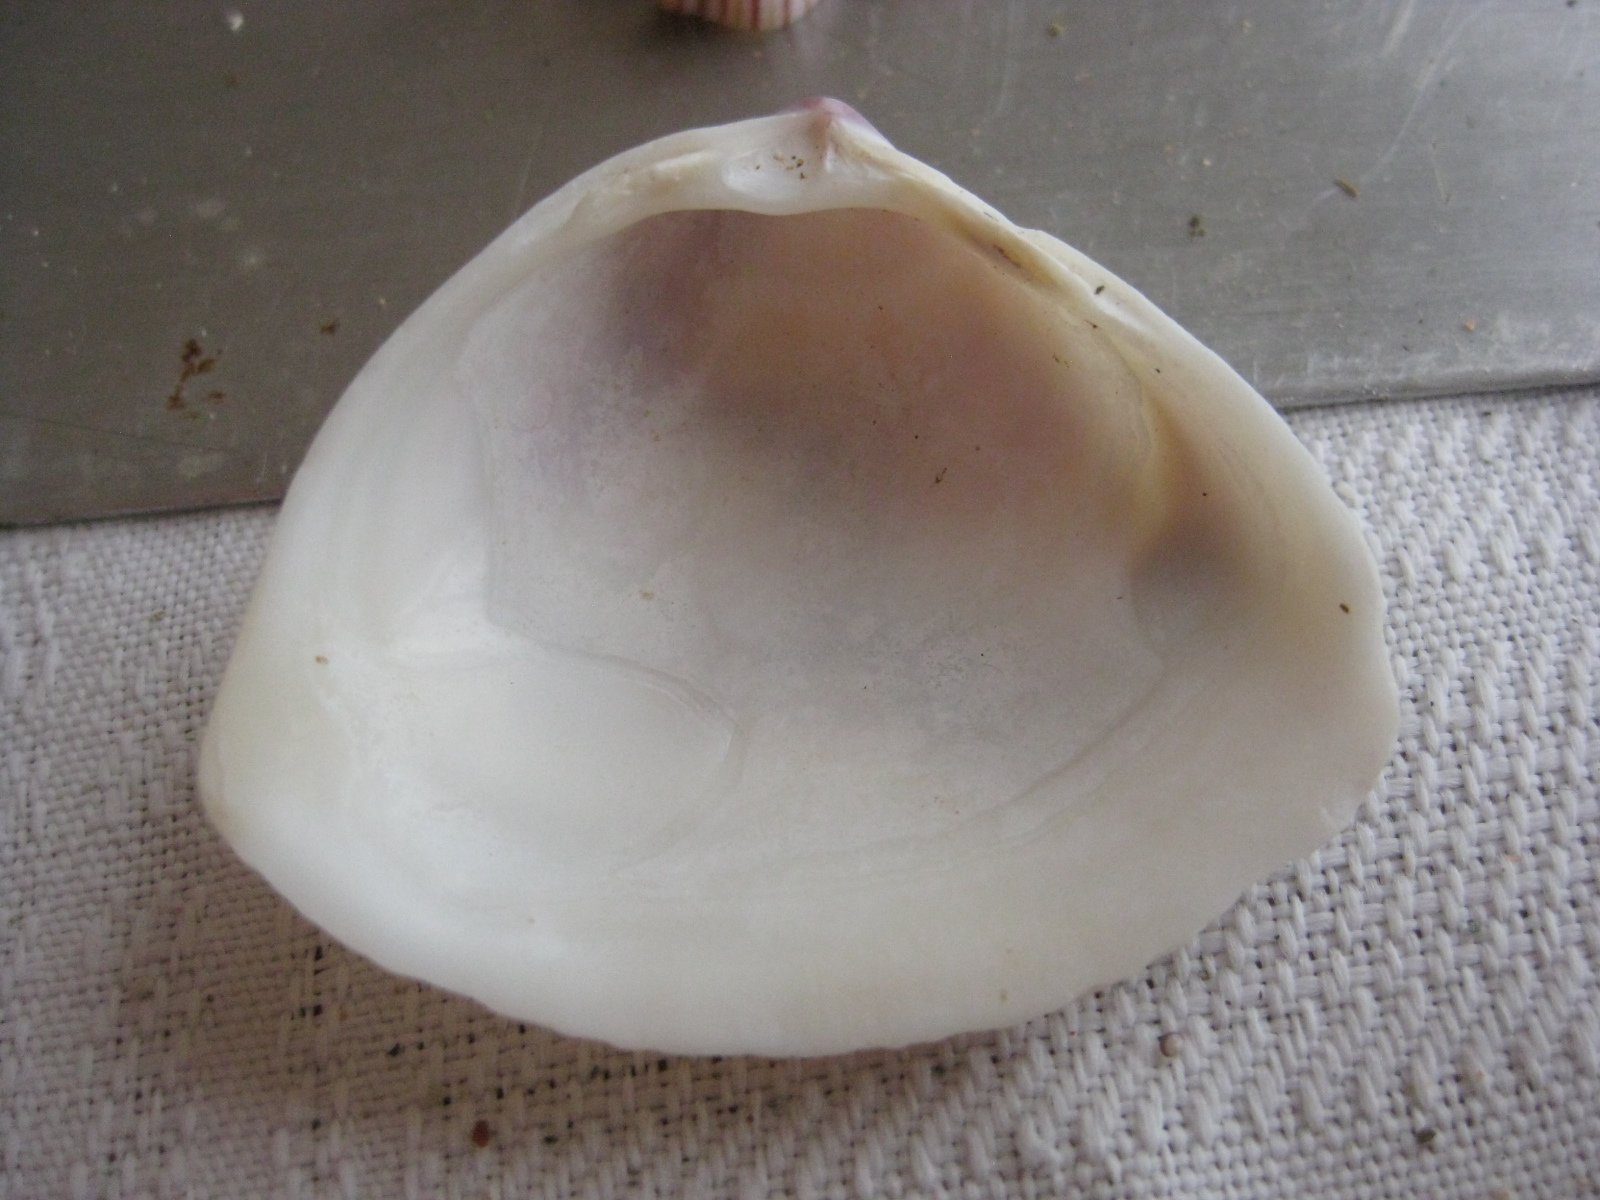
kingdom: Animalia
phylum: Mollusca
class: Bivalvia
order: Venerida
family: Mactridae
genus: Crassula
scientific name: Crassula aequilatera
